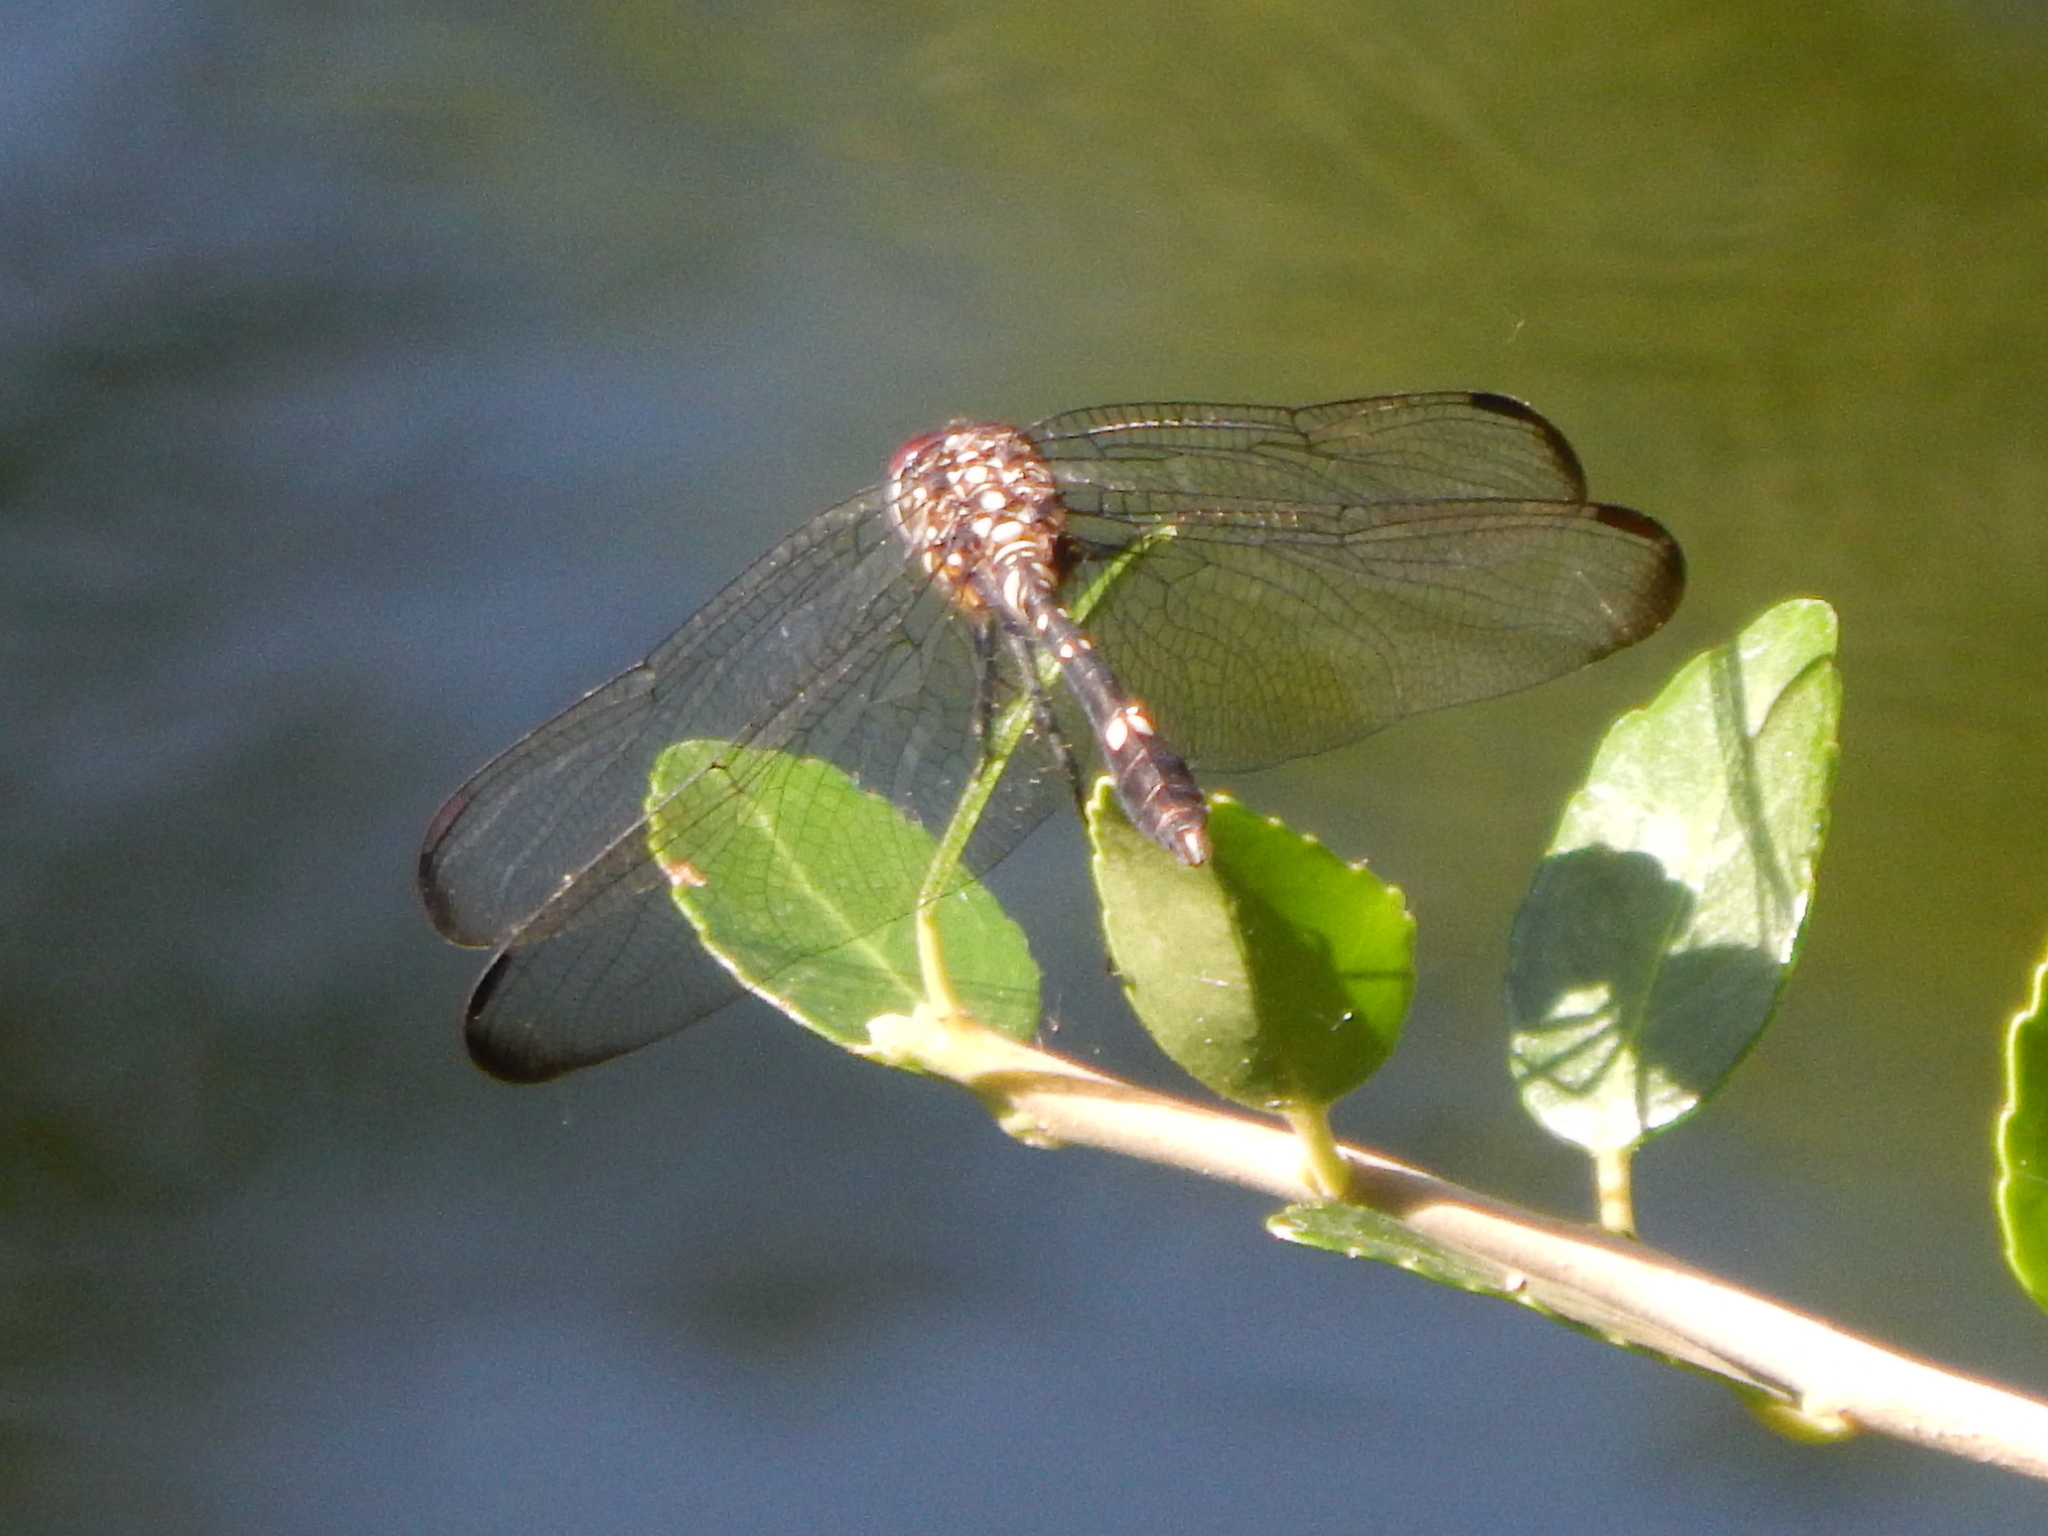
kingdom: Animalia
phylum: Arthropoda
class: Insecta
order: Odonata
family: Libellulidae
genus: Dythemis
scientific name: Dythemis velox
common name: Swift setwing
